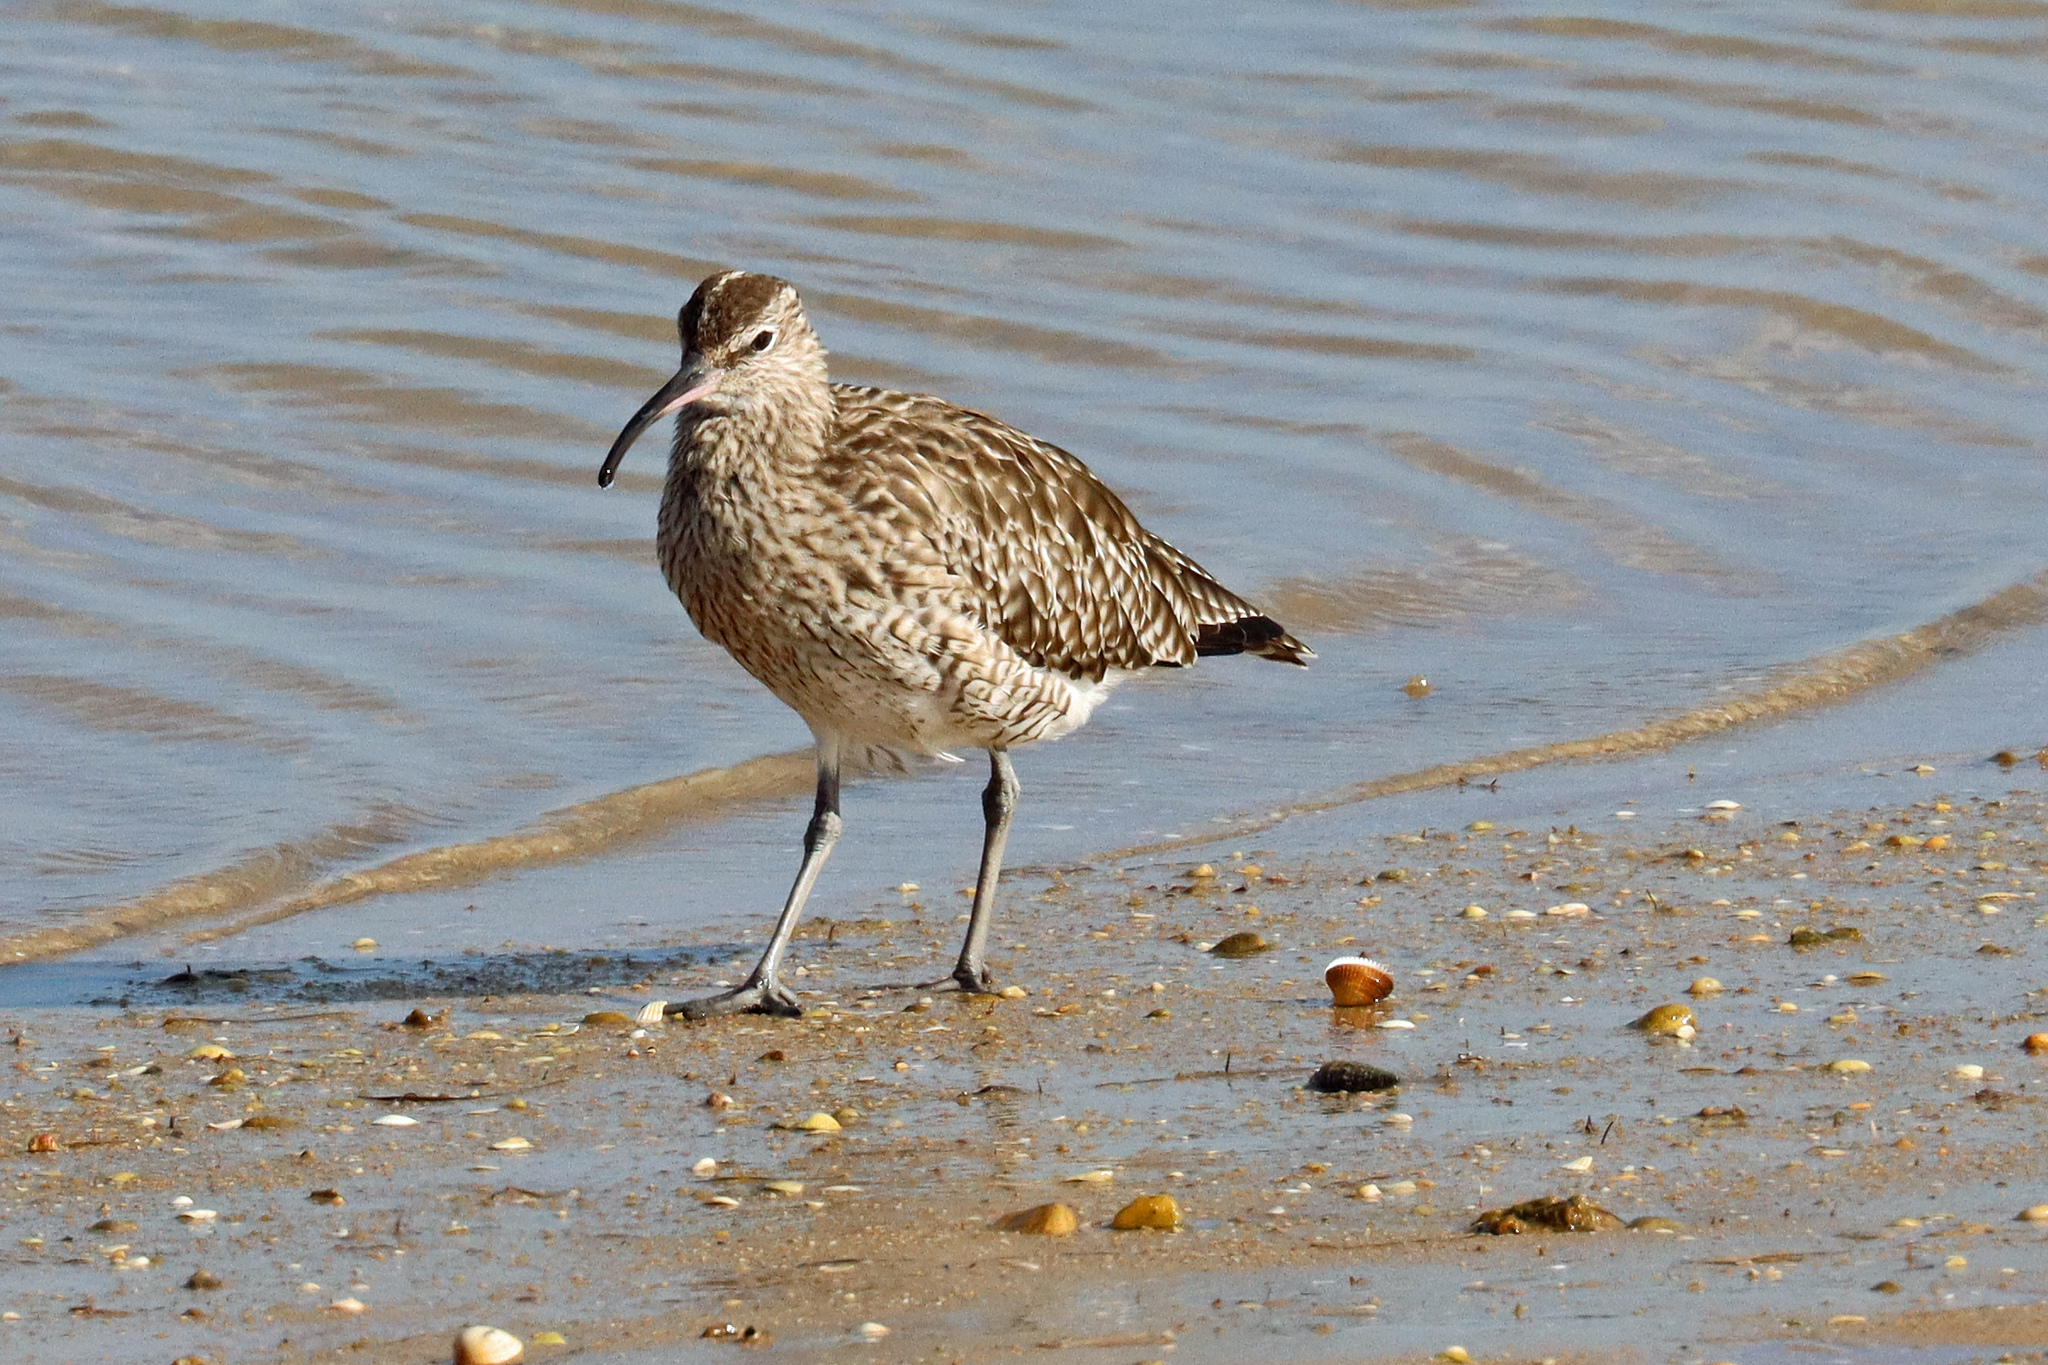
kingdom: Animalia
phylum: Chordata
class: Aves
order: Charadriiformes
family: Scolopacidae
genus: Numenius
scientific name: Numenius phaeopus
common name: Whimbrel
